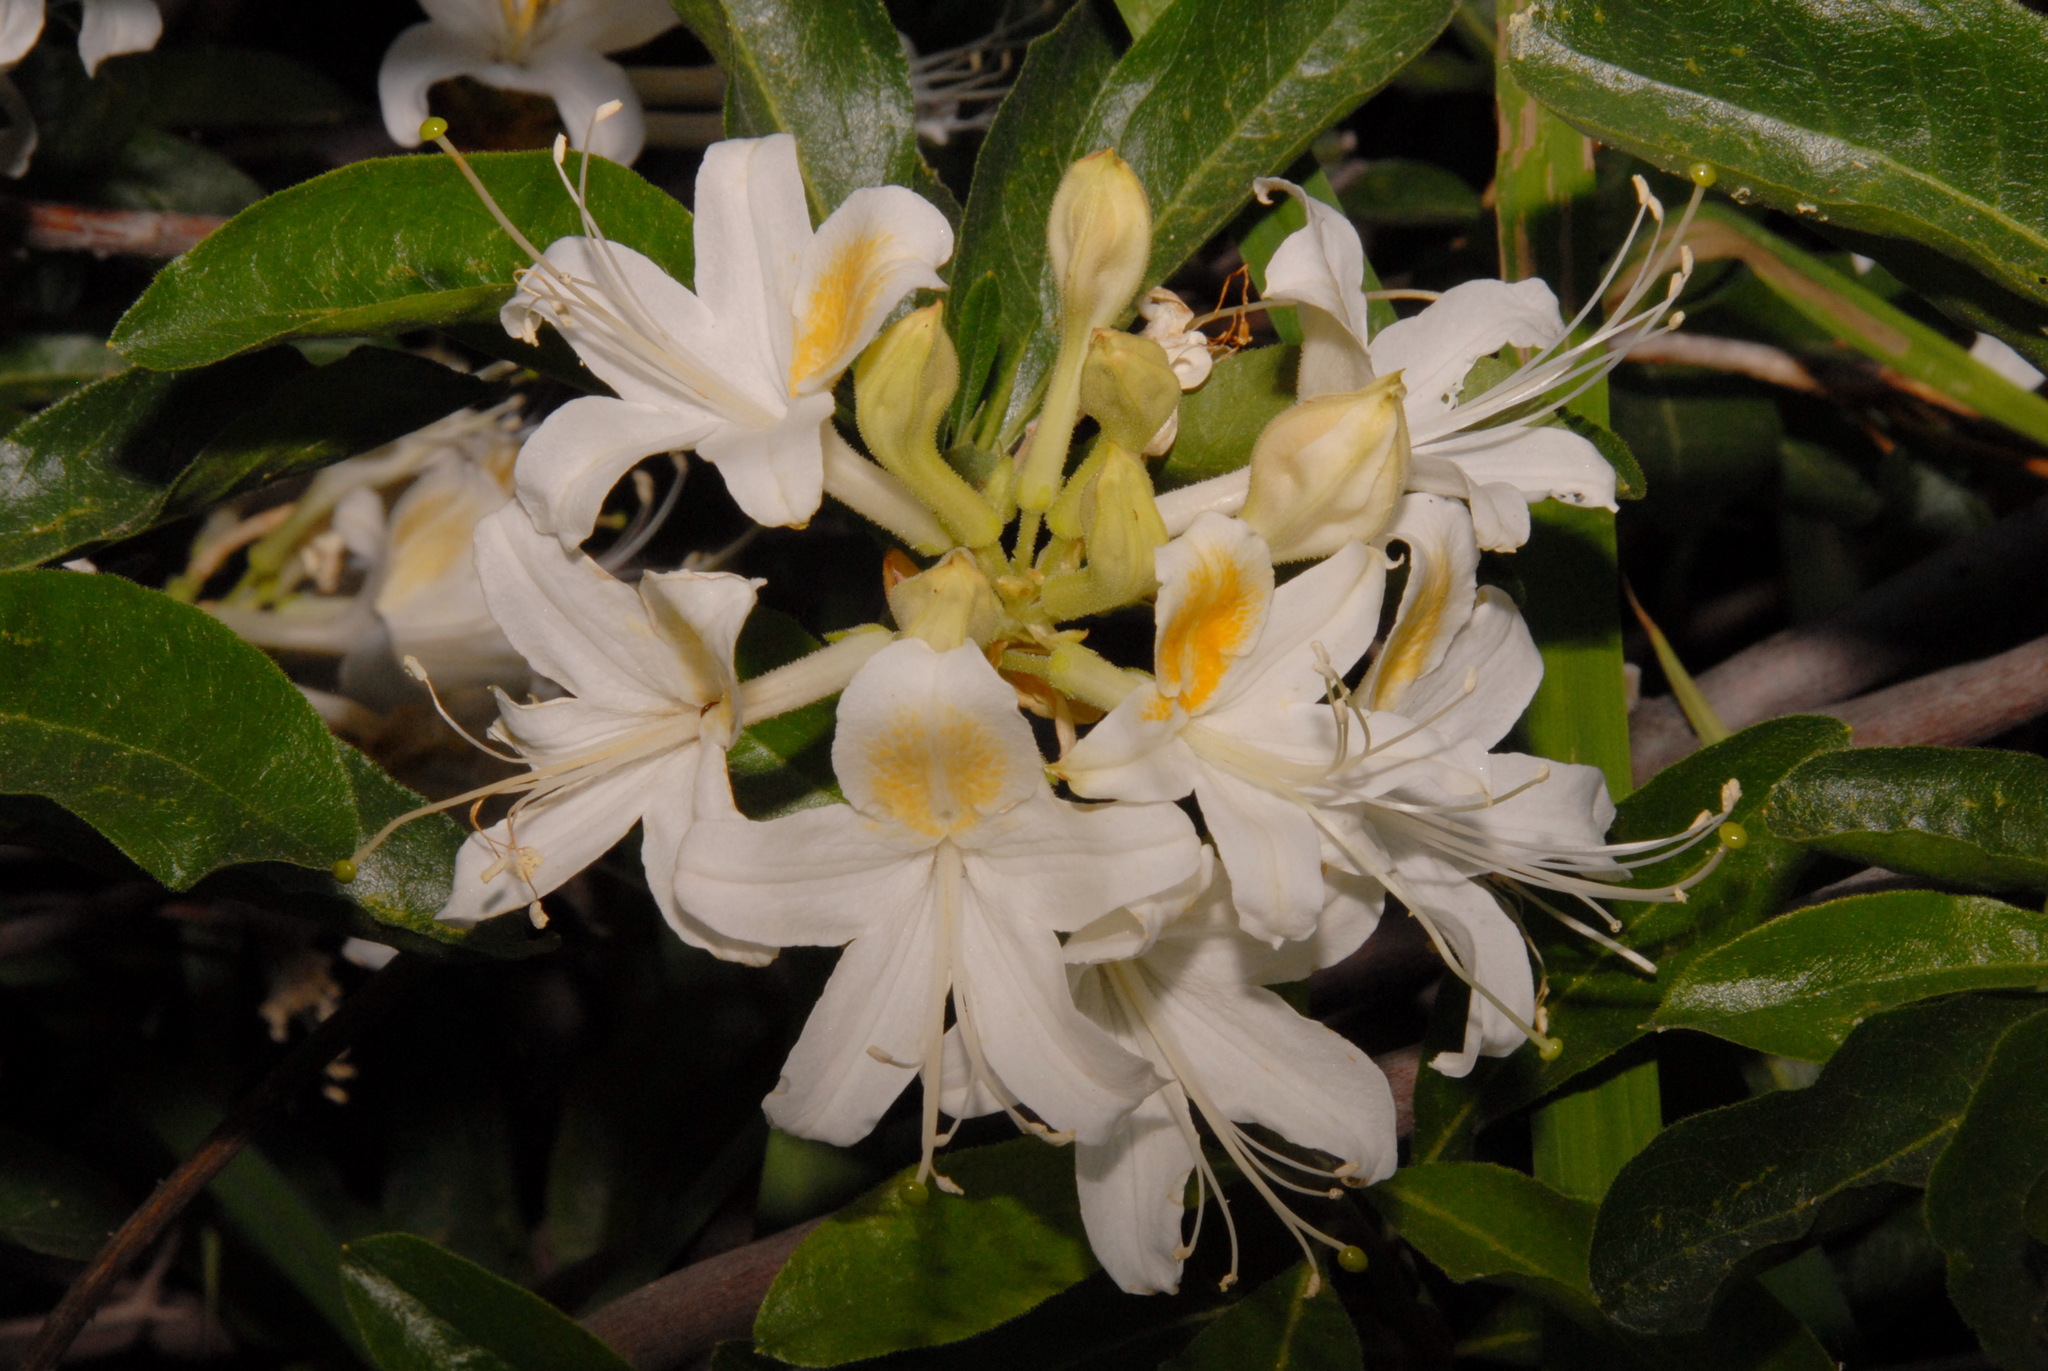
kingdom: Plantae
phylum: Tracheophyta
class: Magnoliopsida
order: Ericales
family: Ericaceae
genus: Rhododendron
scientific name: Rhododendron occidentale
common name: Western azalea
